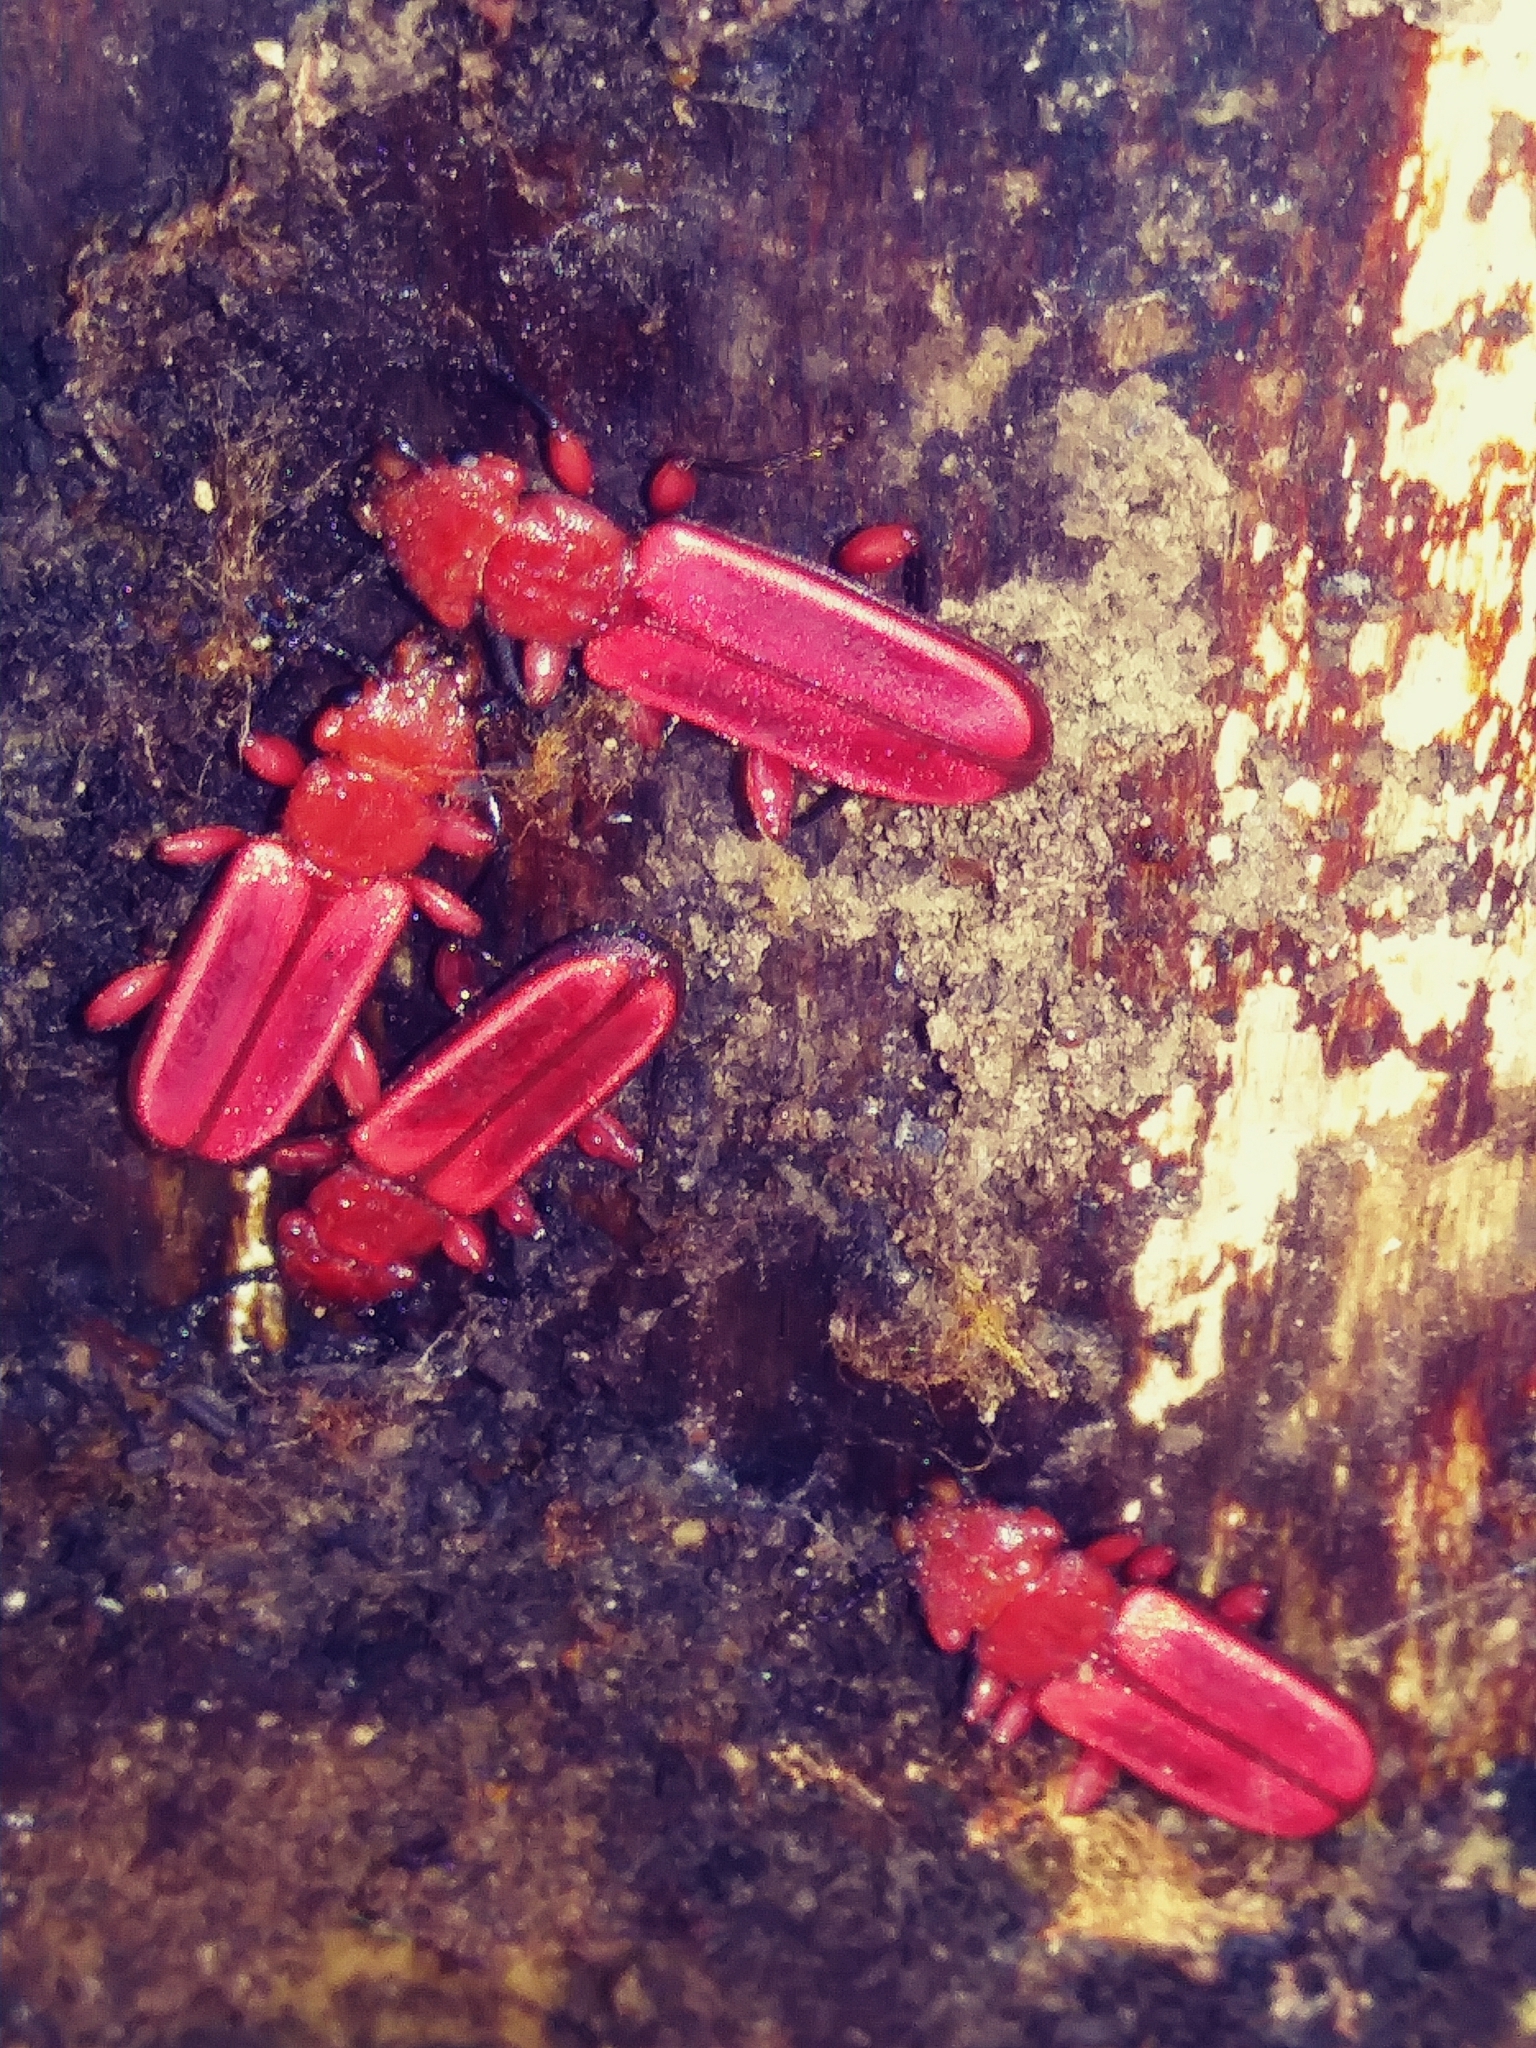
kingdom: Animalia
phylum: Arthropoda
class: Insecta
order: Coleoptera
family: Cucujidae
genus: Cucujus
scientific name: Cucujus clavipes
